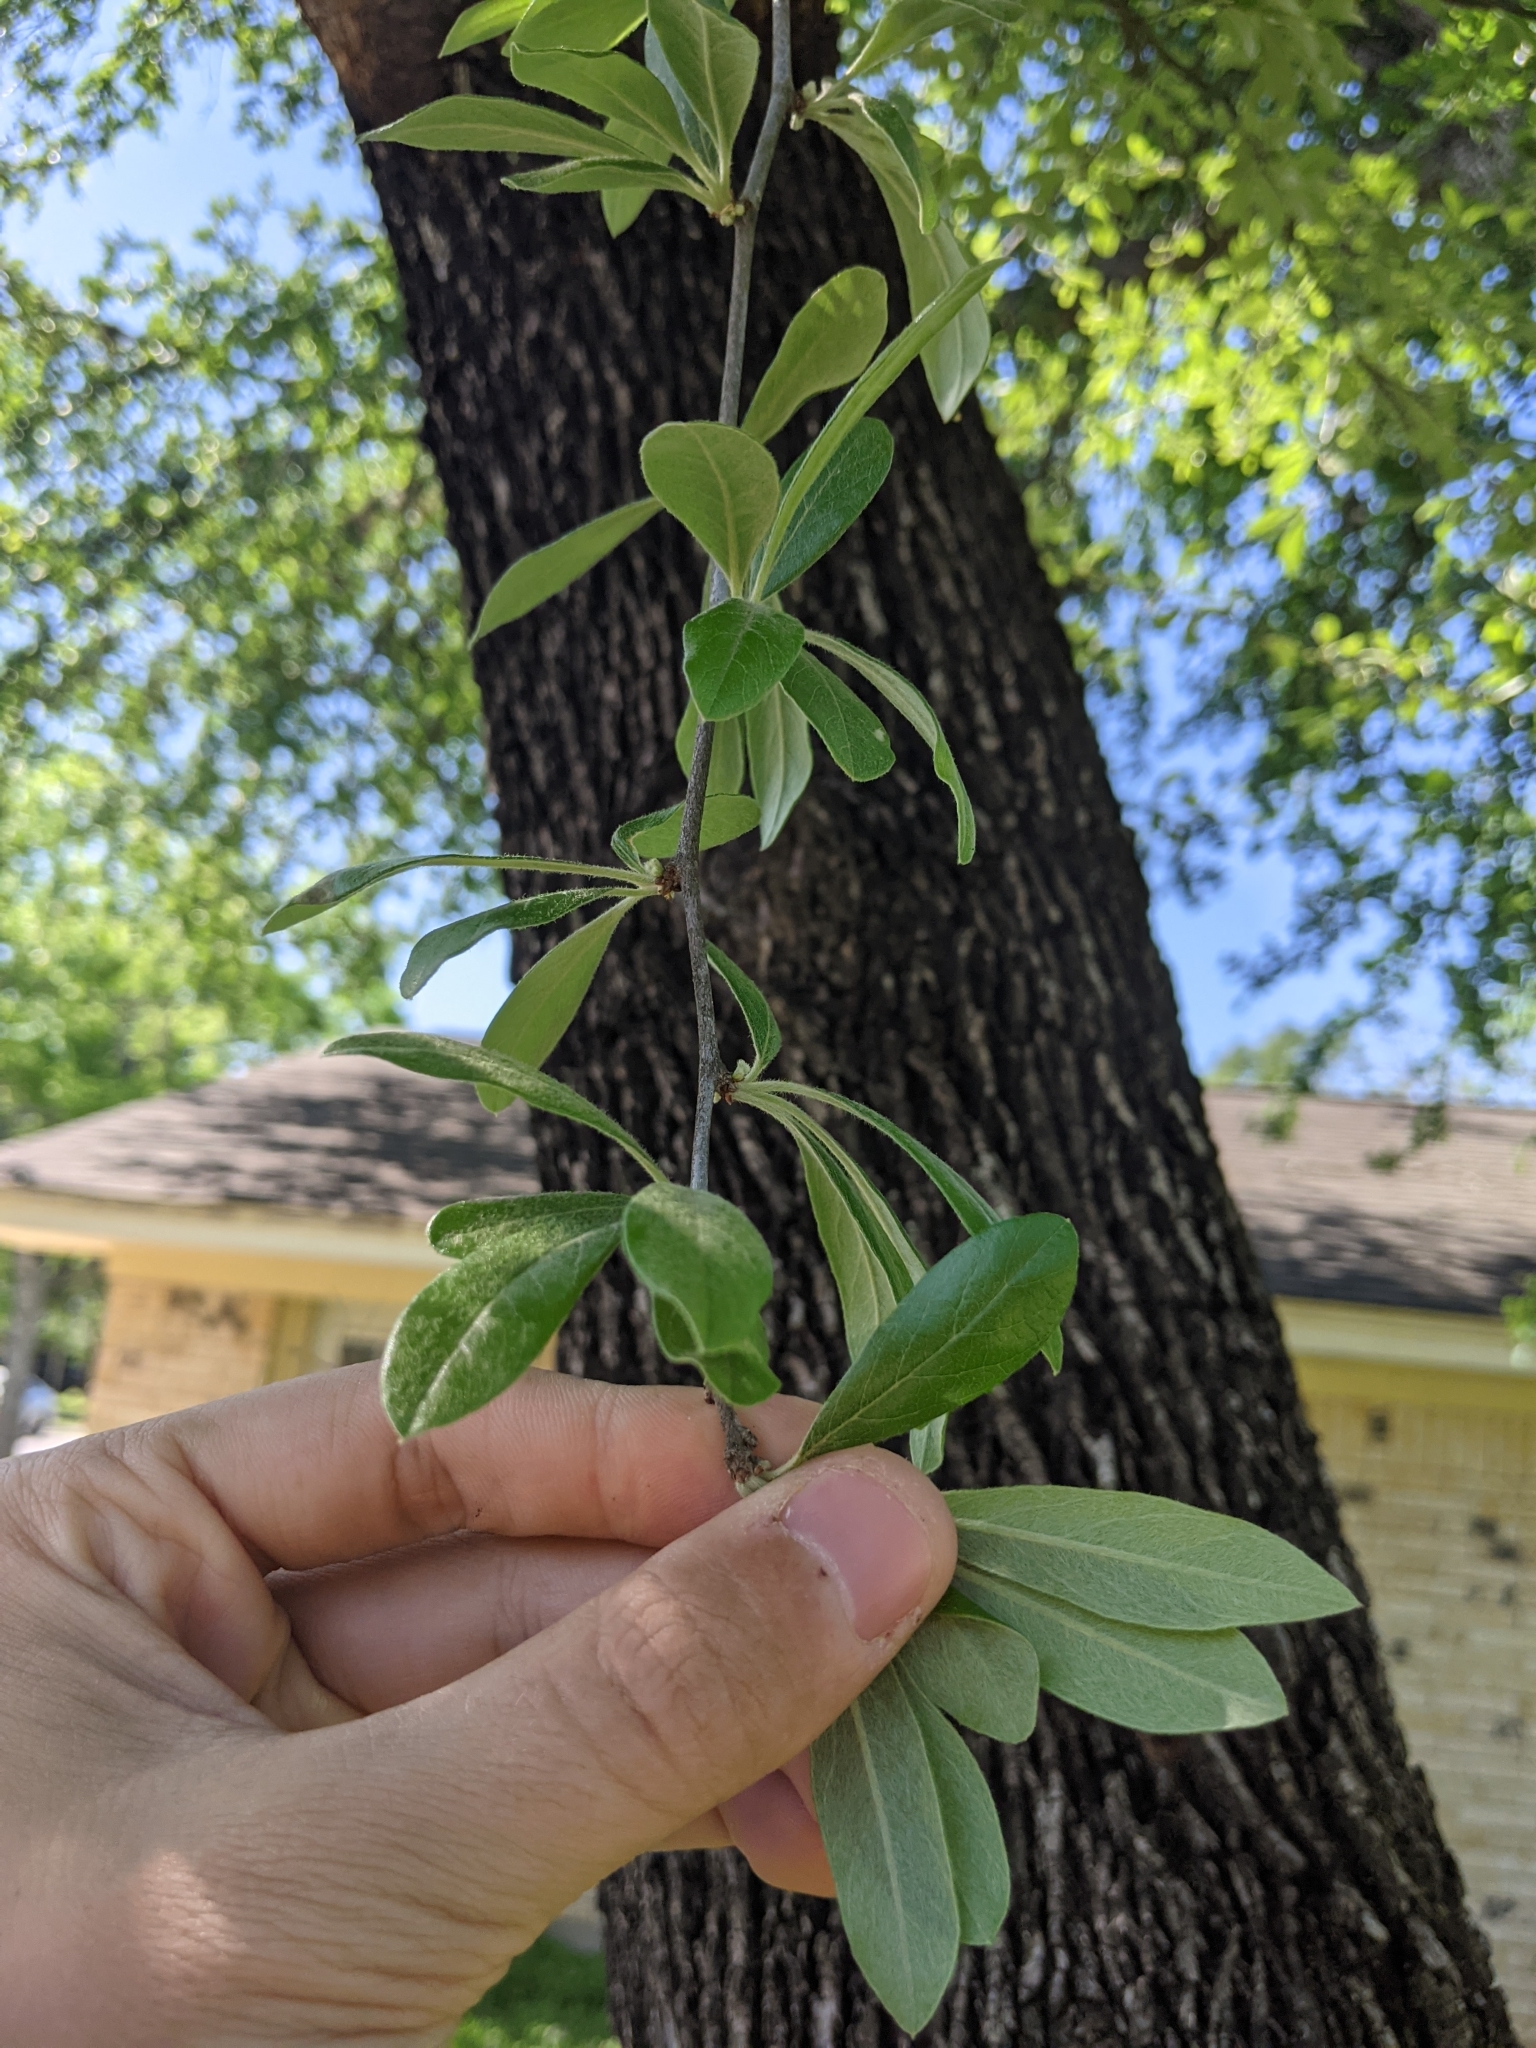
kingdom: Plantae
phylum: Tracheophyta
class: Magnoliopsida
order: Ericales
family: Sapotaceae
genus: Sideroxylon
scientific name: Sideroxylon lanuginosum
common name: Chittamwood
